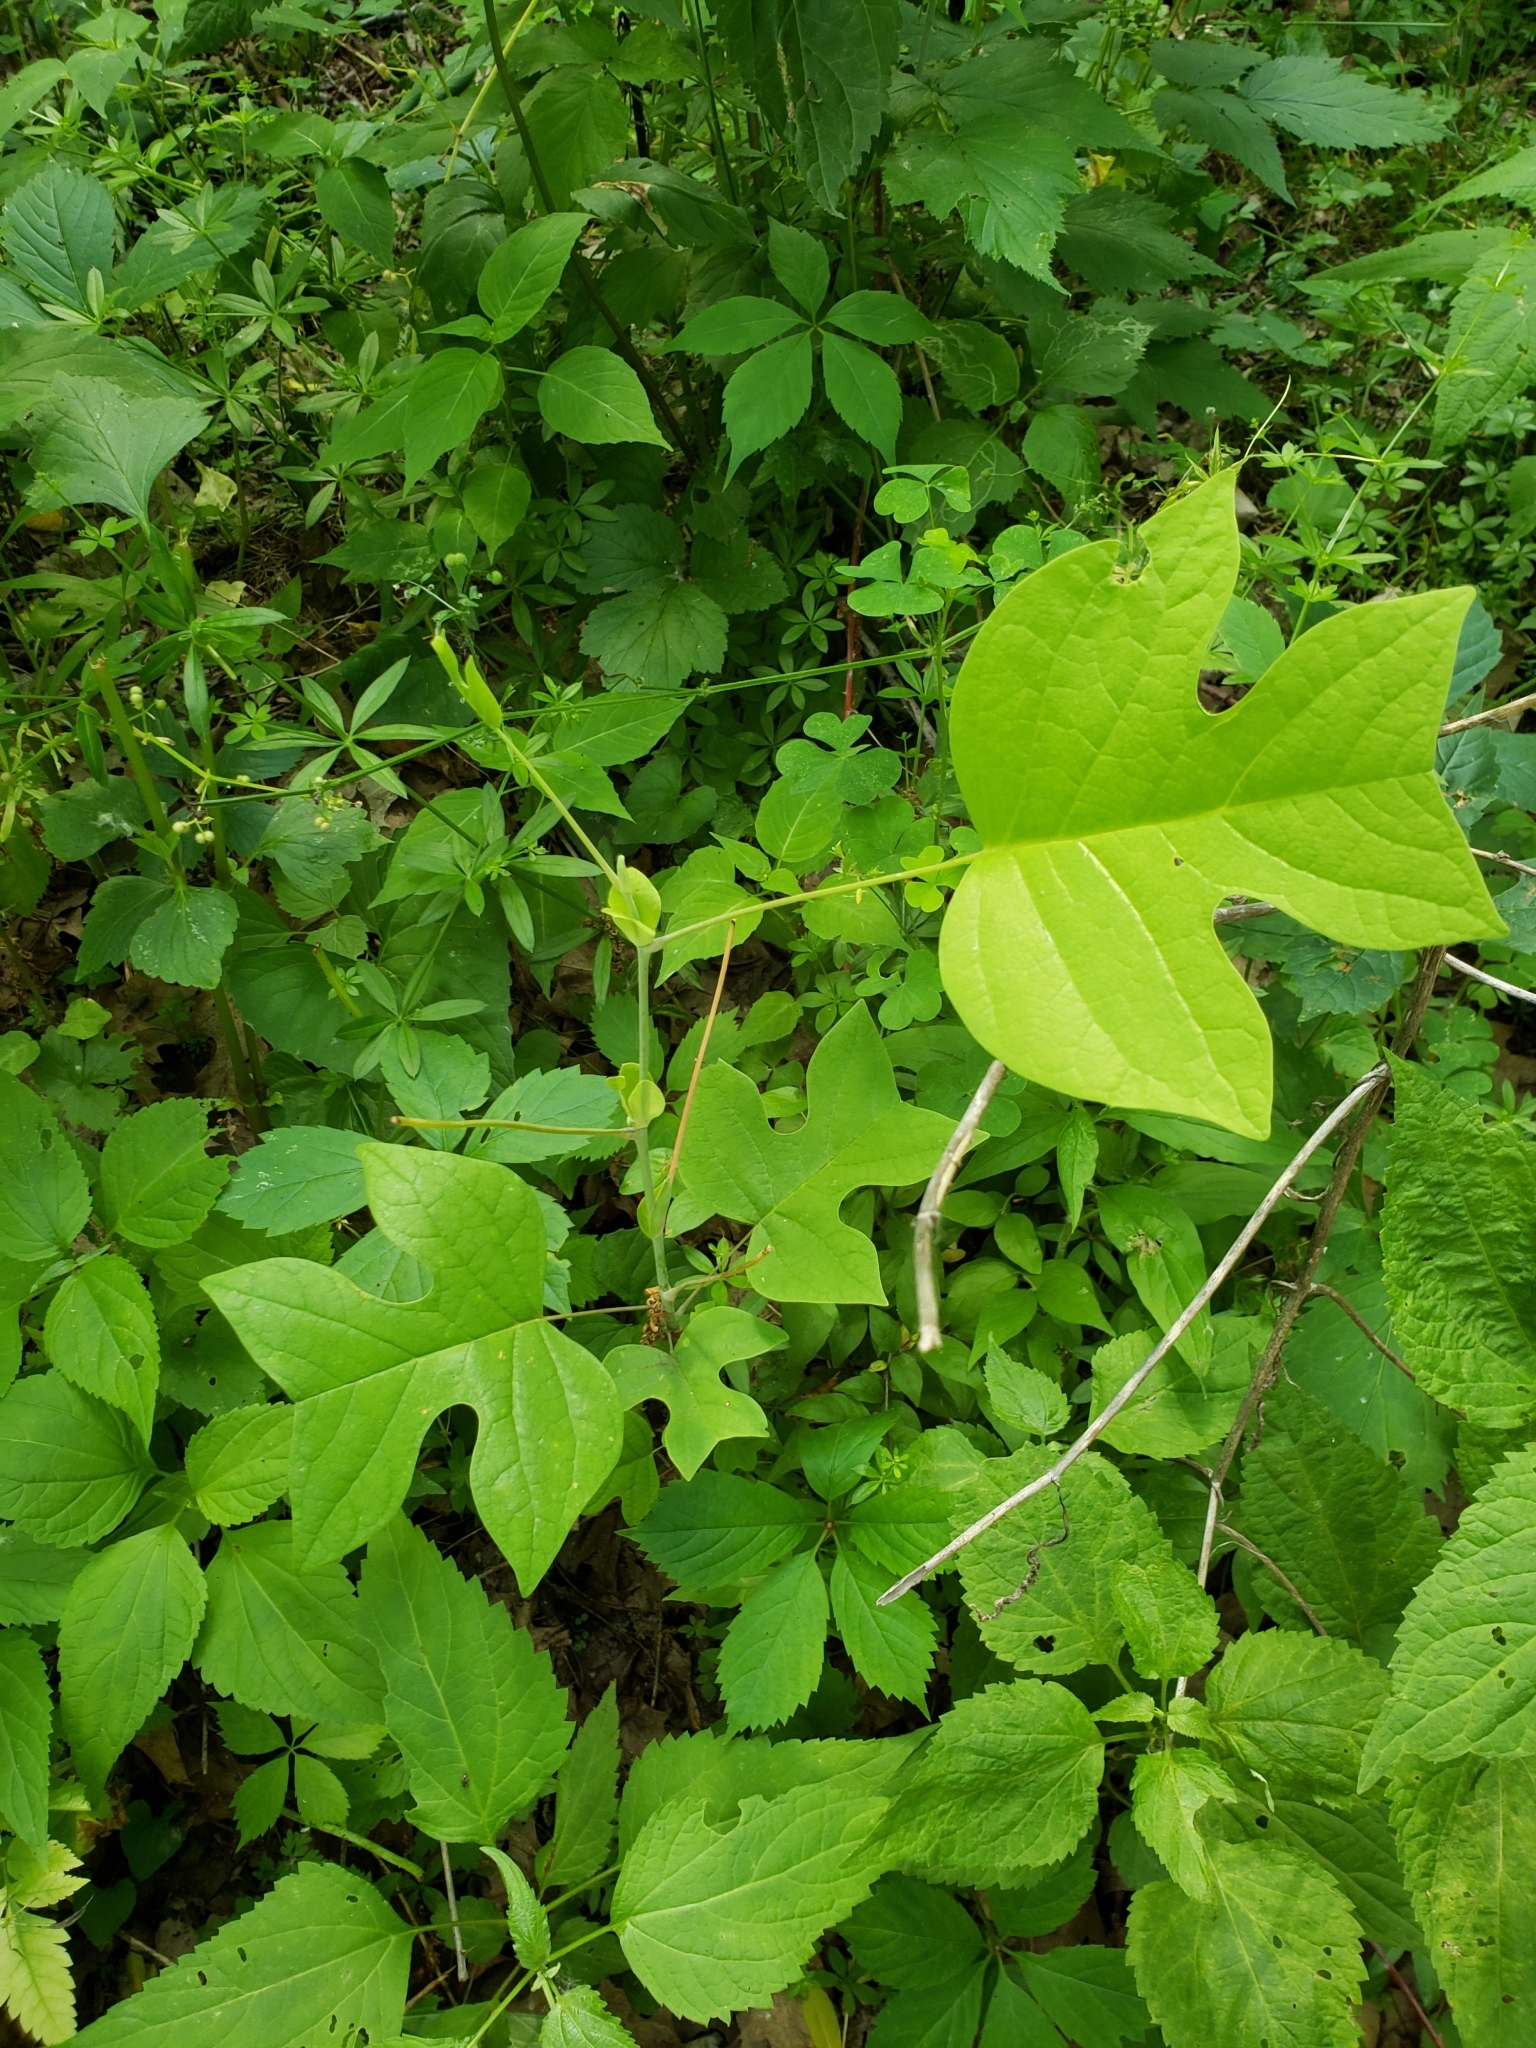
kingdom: Plantae
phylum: Tracheophyta
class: Magnoliopsida
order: Magnoliales
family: Magnoliaceae
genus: Liriodendron
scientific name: Liriodendron tulipifera
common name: Tulip tree
